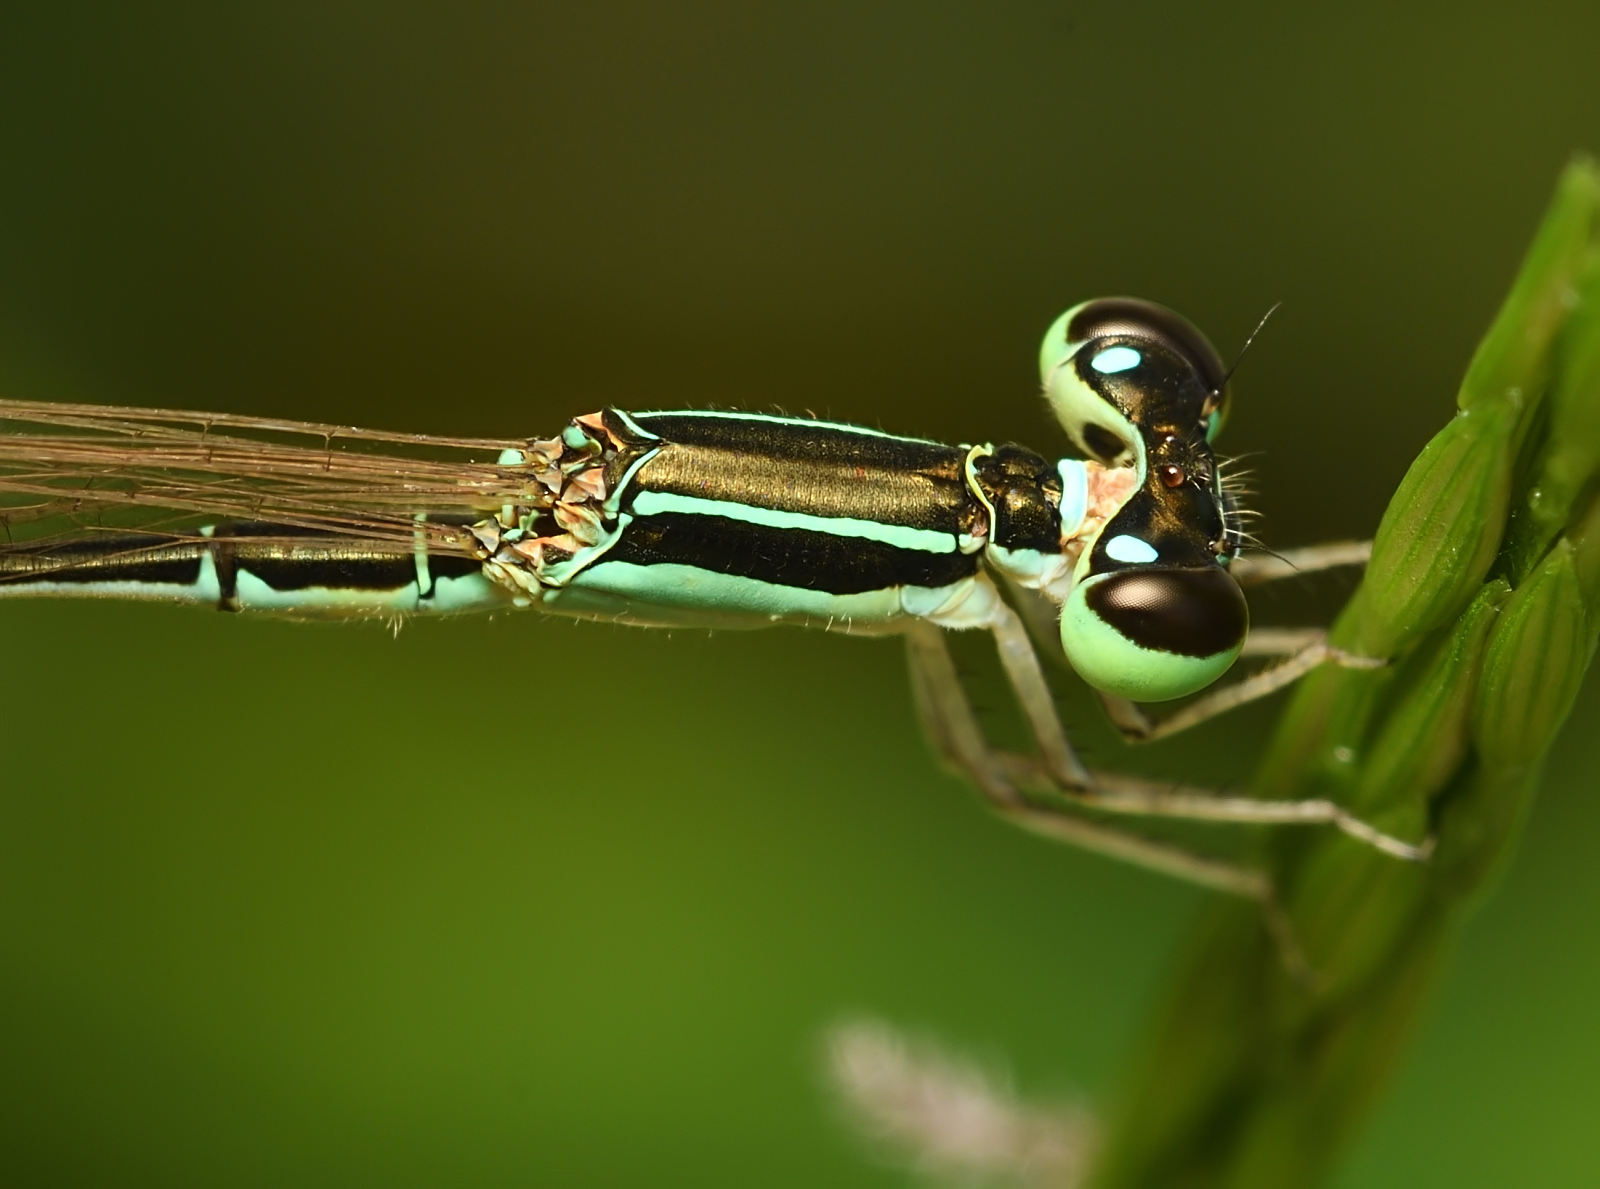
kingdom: Animalia
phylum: Arthropoda
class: Insecta
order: Odonata
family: Coenagrionidae
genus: Agriocnemis
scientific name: Agriocnemis pygmaea
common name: Pygmy wisp
